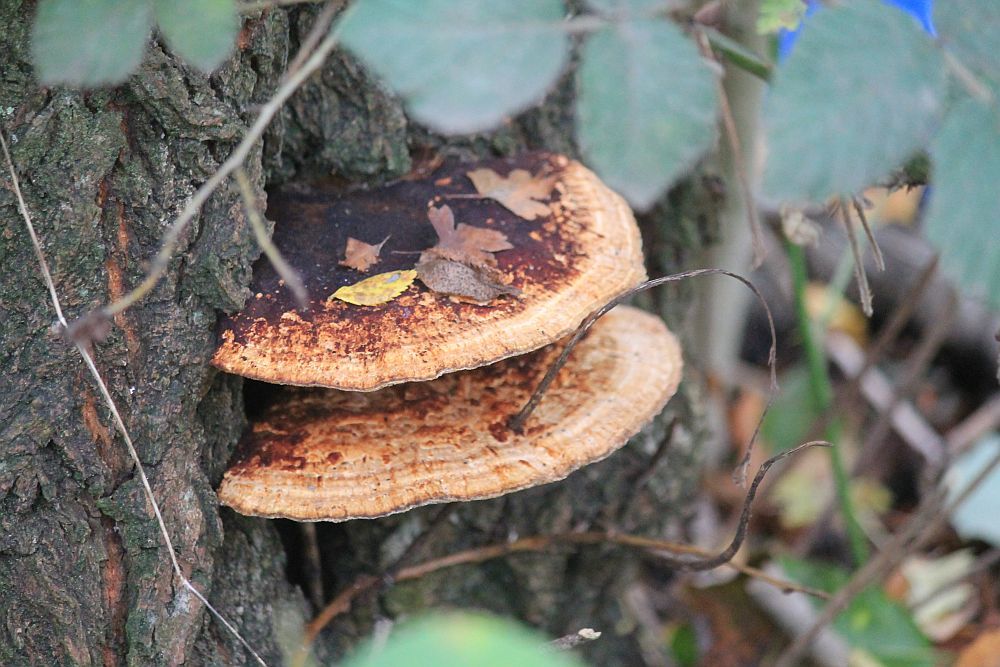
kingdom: Fungi
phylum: Basidiomycota
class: Agaricomycetes
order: Polyporales
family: Polyporaceae
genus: Daedaleopsis
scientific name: Daedaleopsis confragosa
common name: Blushing bracket
